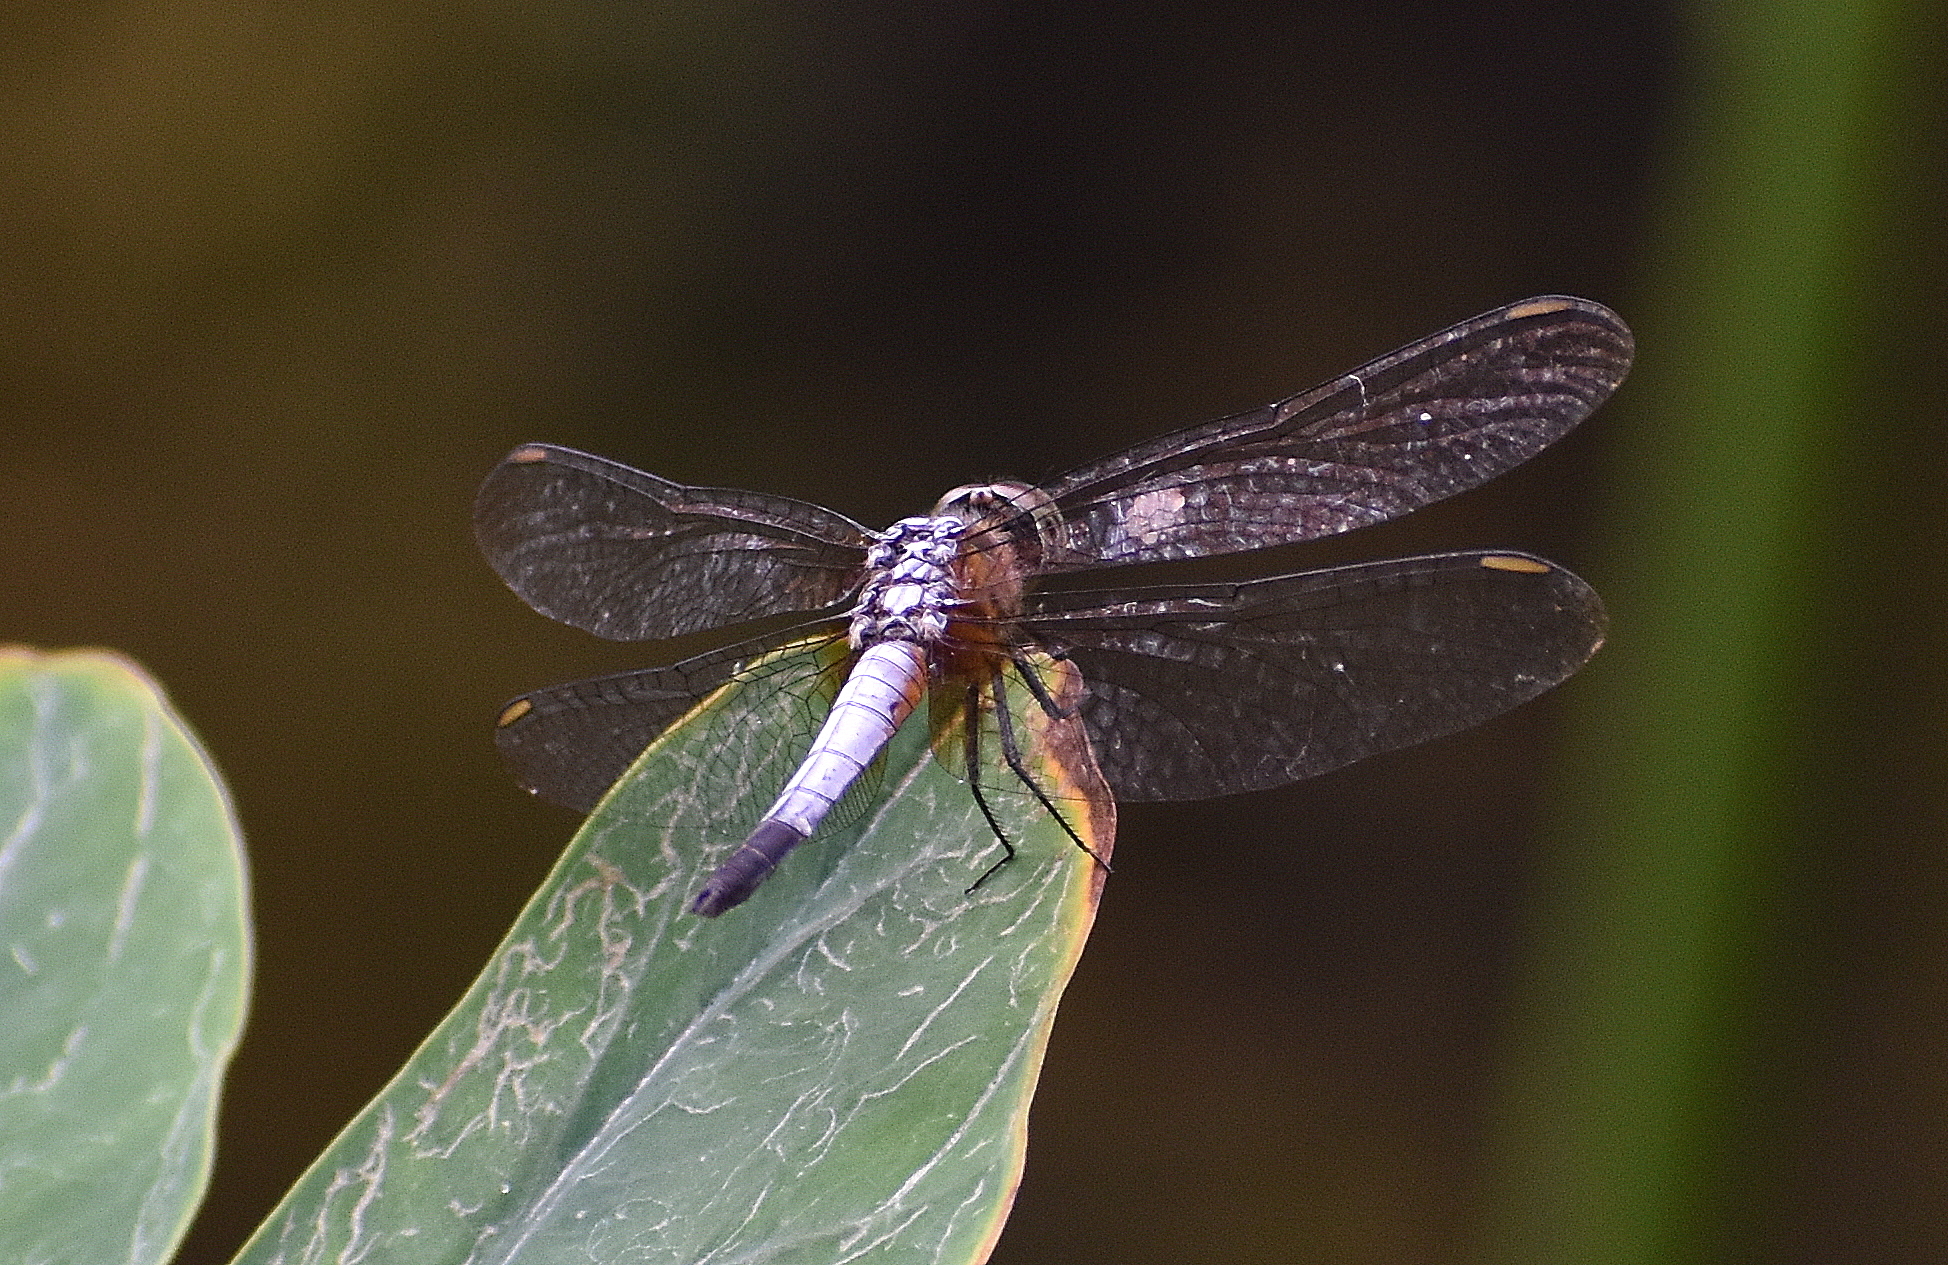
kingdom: Animalia
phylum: Arthropoda
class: Insecta
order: Odonata
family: Libellulidae
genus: Brachydiplax
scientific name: Brachydiplax chalybea
